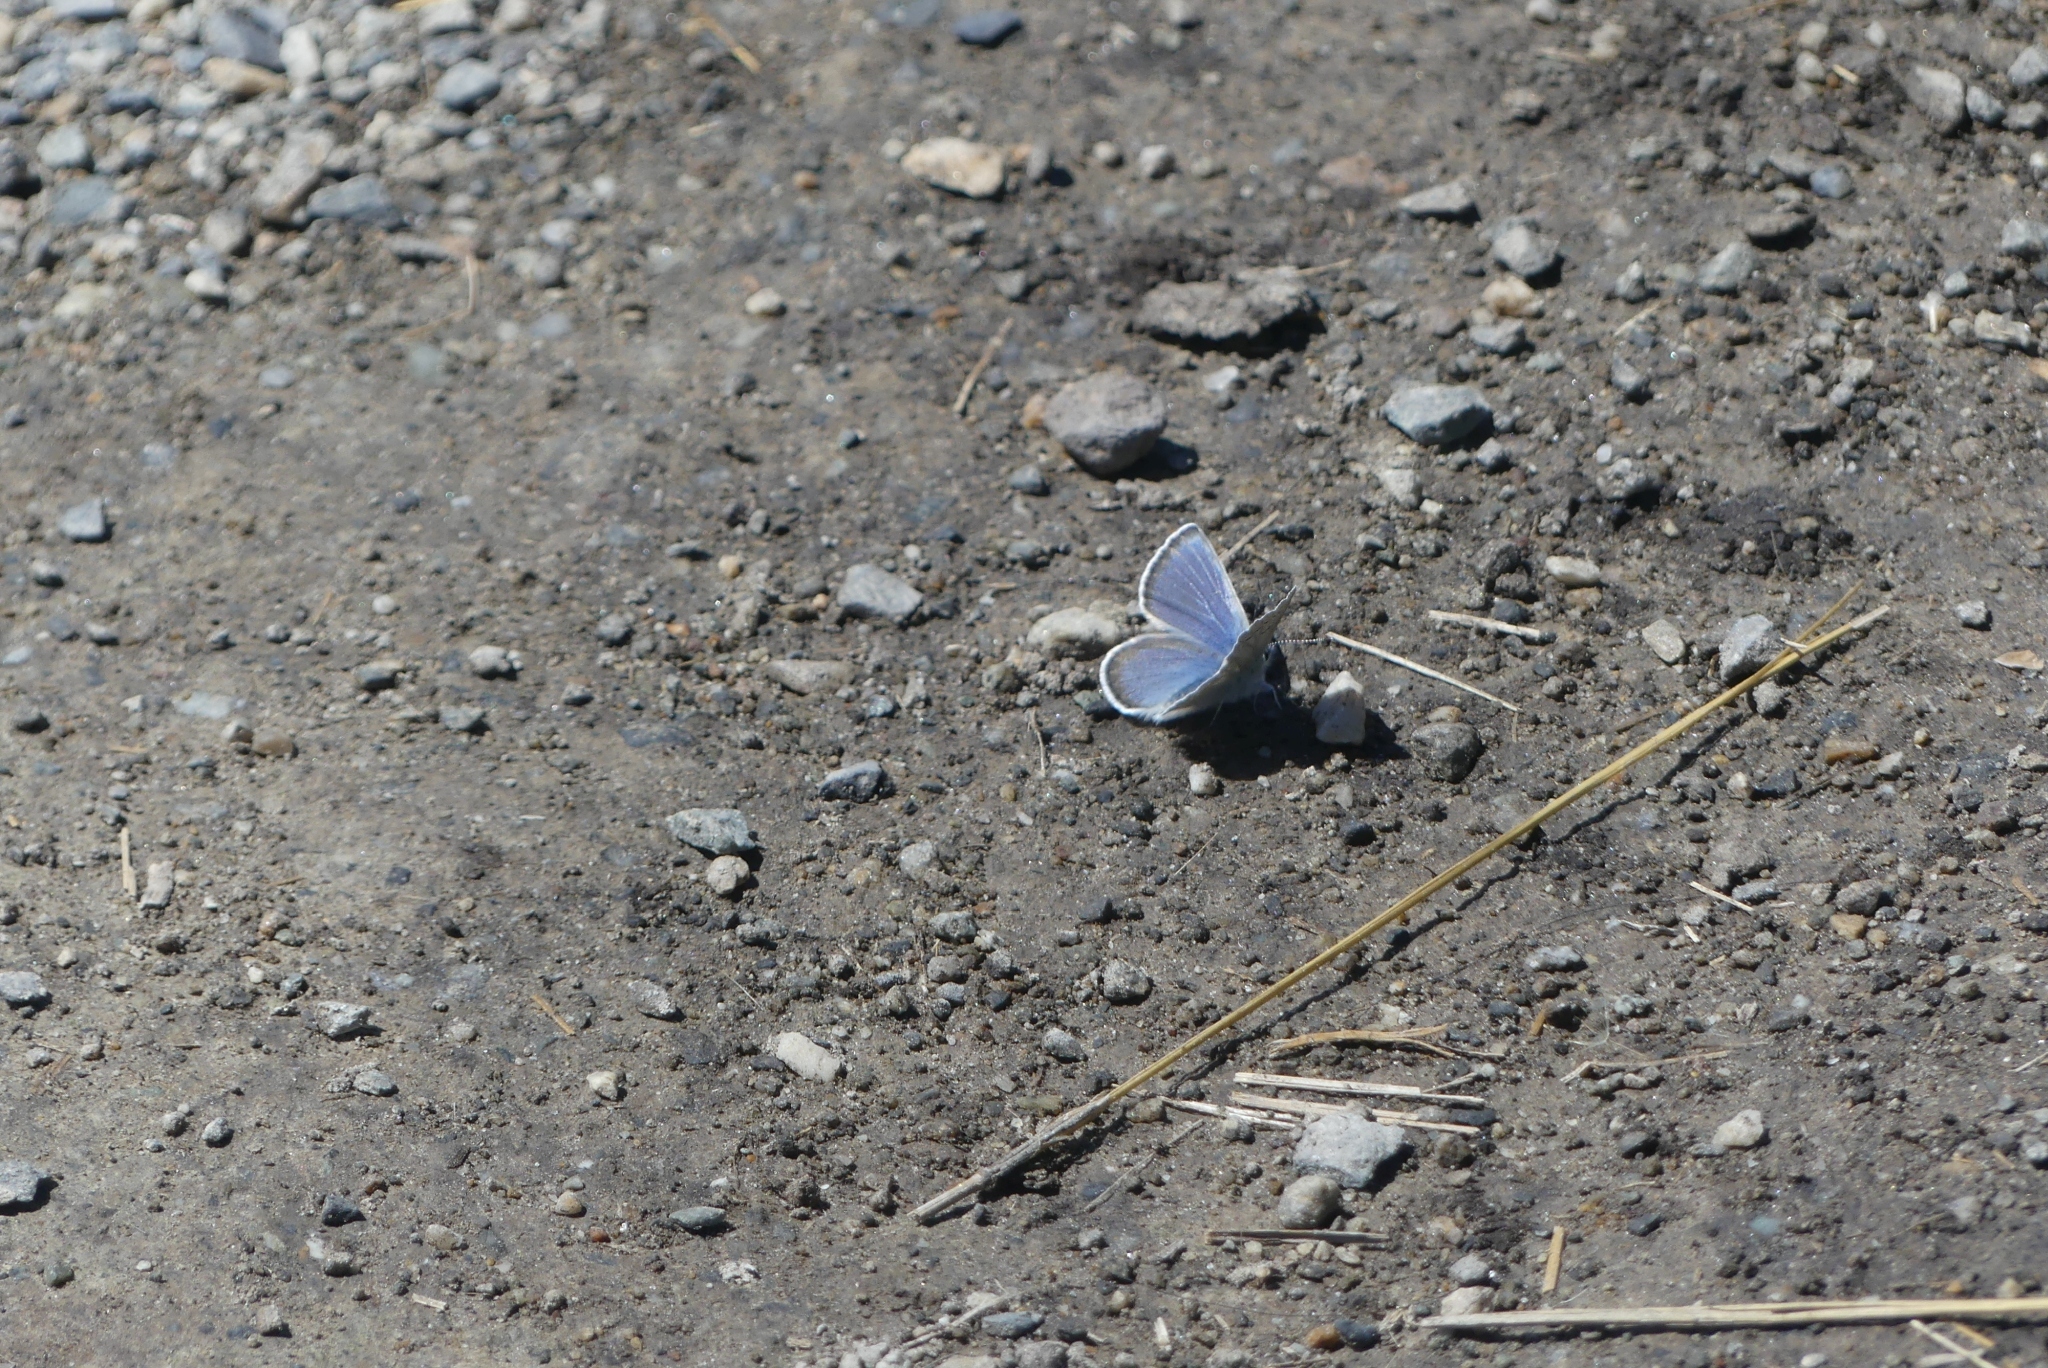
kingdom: Animalia
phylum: Arthropoda
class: Insecta
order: Lepidoptera
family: Lycaenidae
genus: Icaricia
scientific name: Icaricia icarioides
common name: Boisduval's blue
